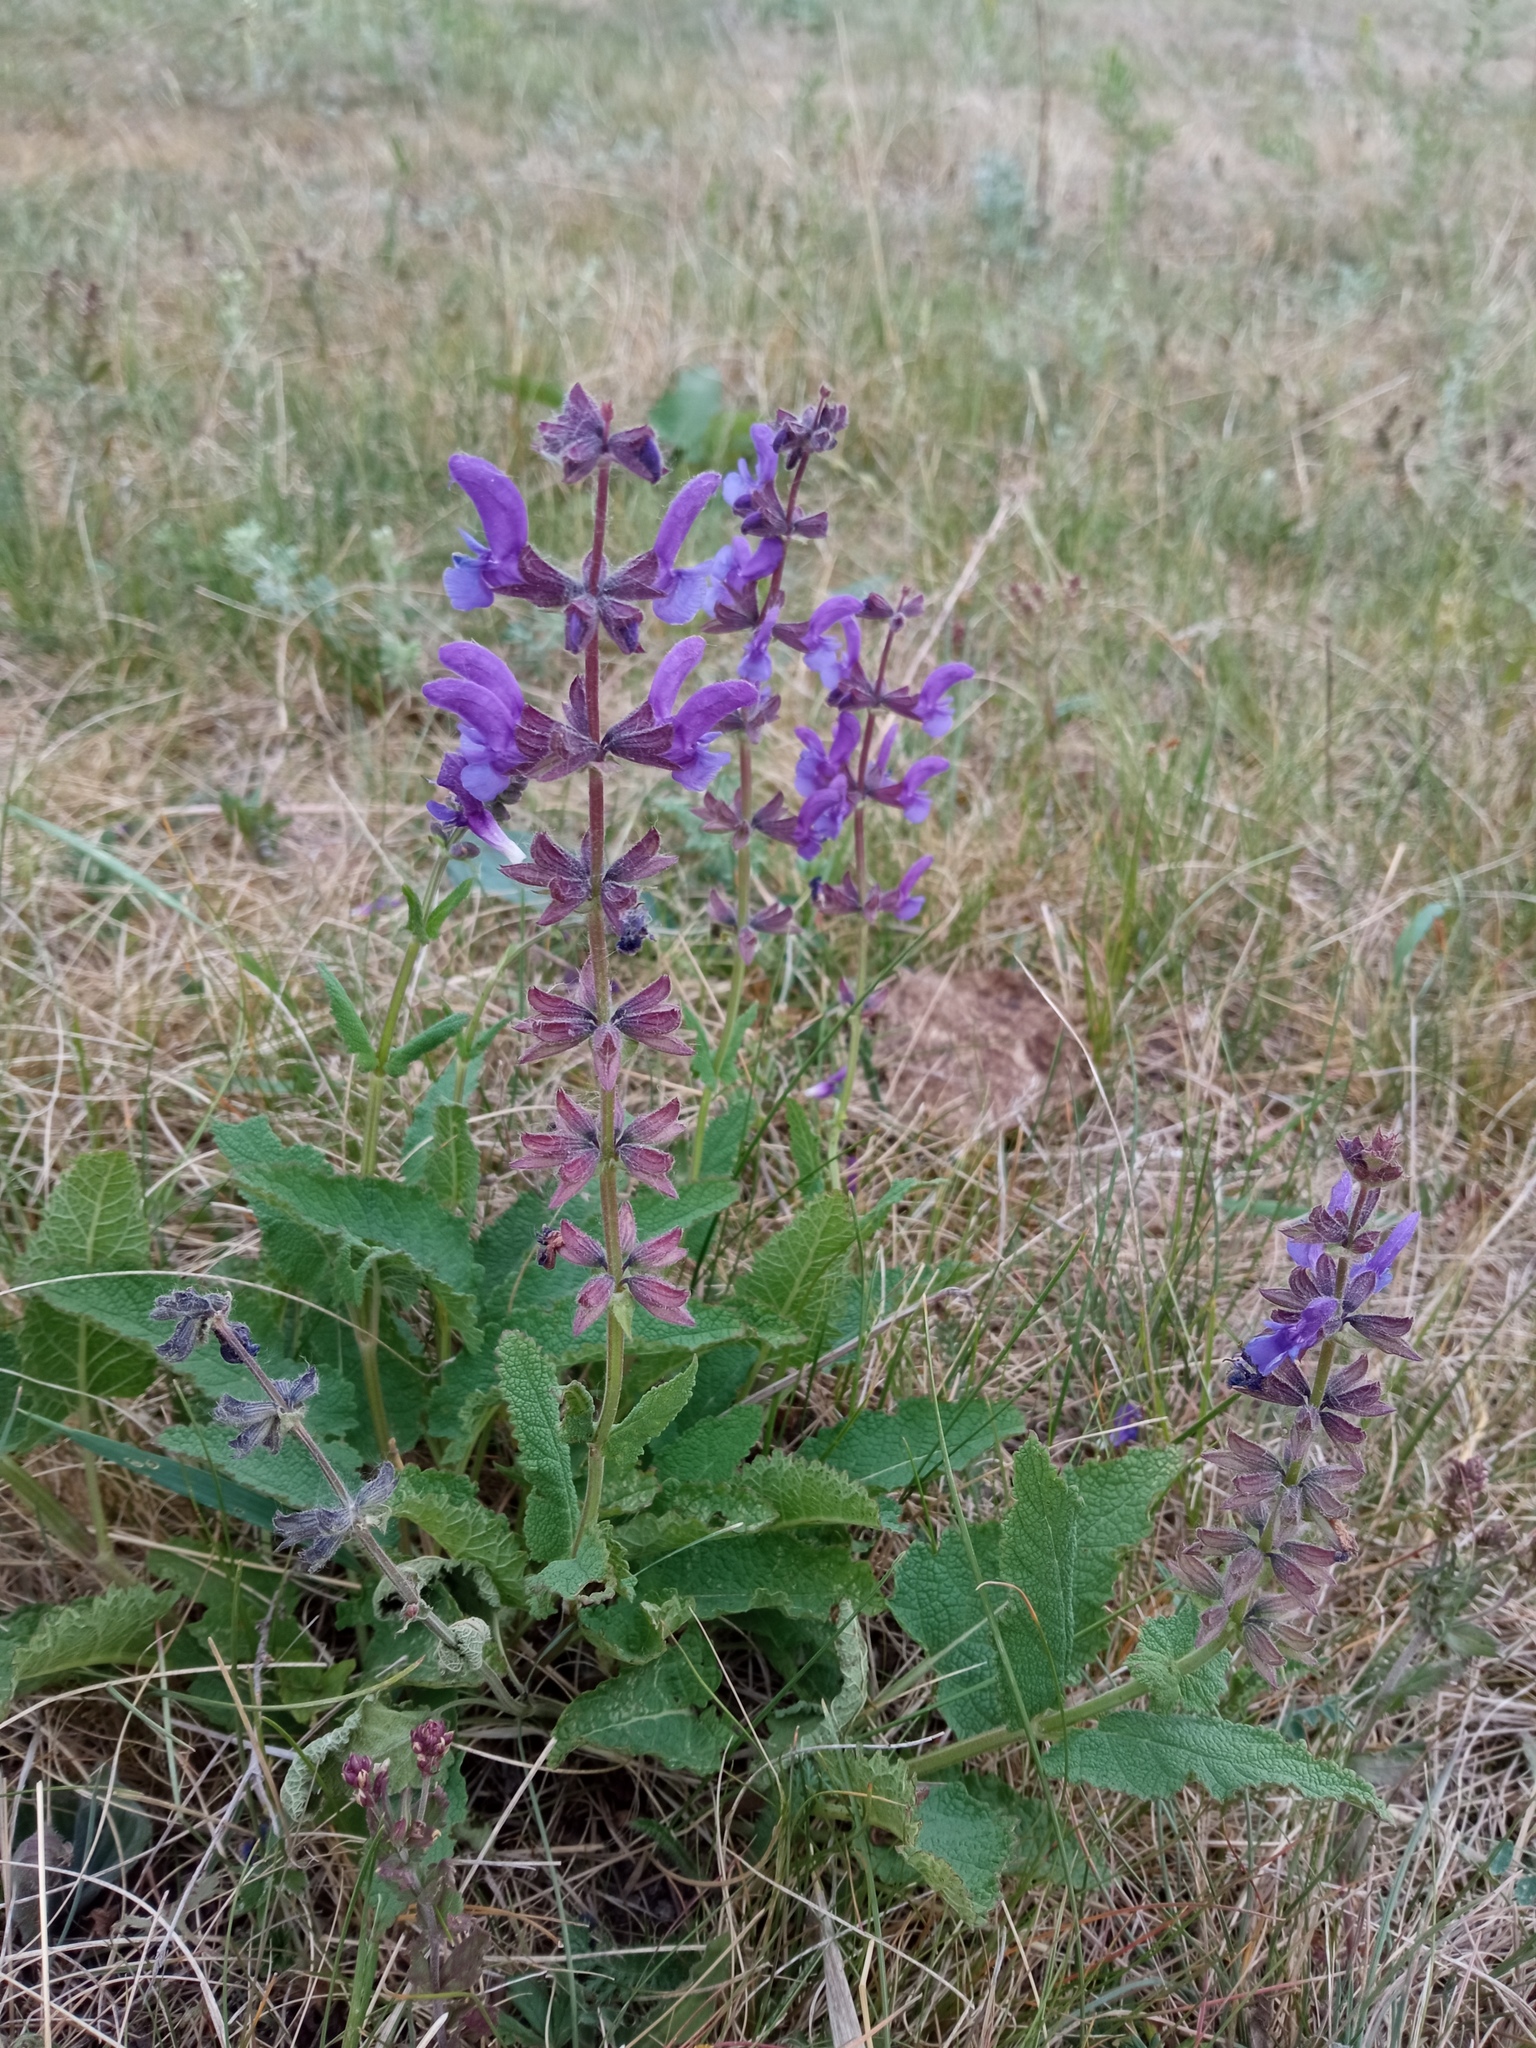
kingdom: Plantae
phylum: Tracheophyta
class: Magnoliopsida
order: Lamiales
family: Lamiaceae
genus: Salvia
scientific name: Salvia dumetorum
